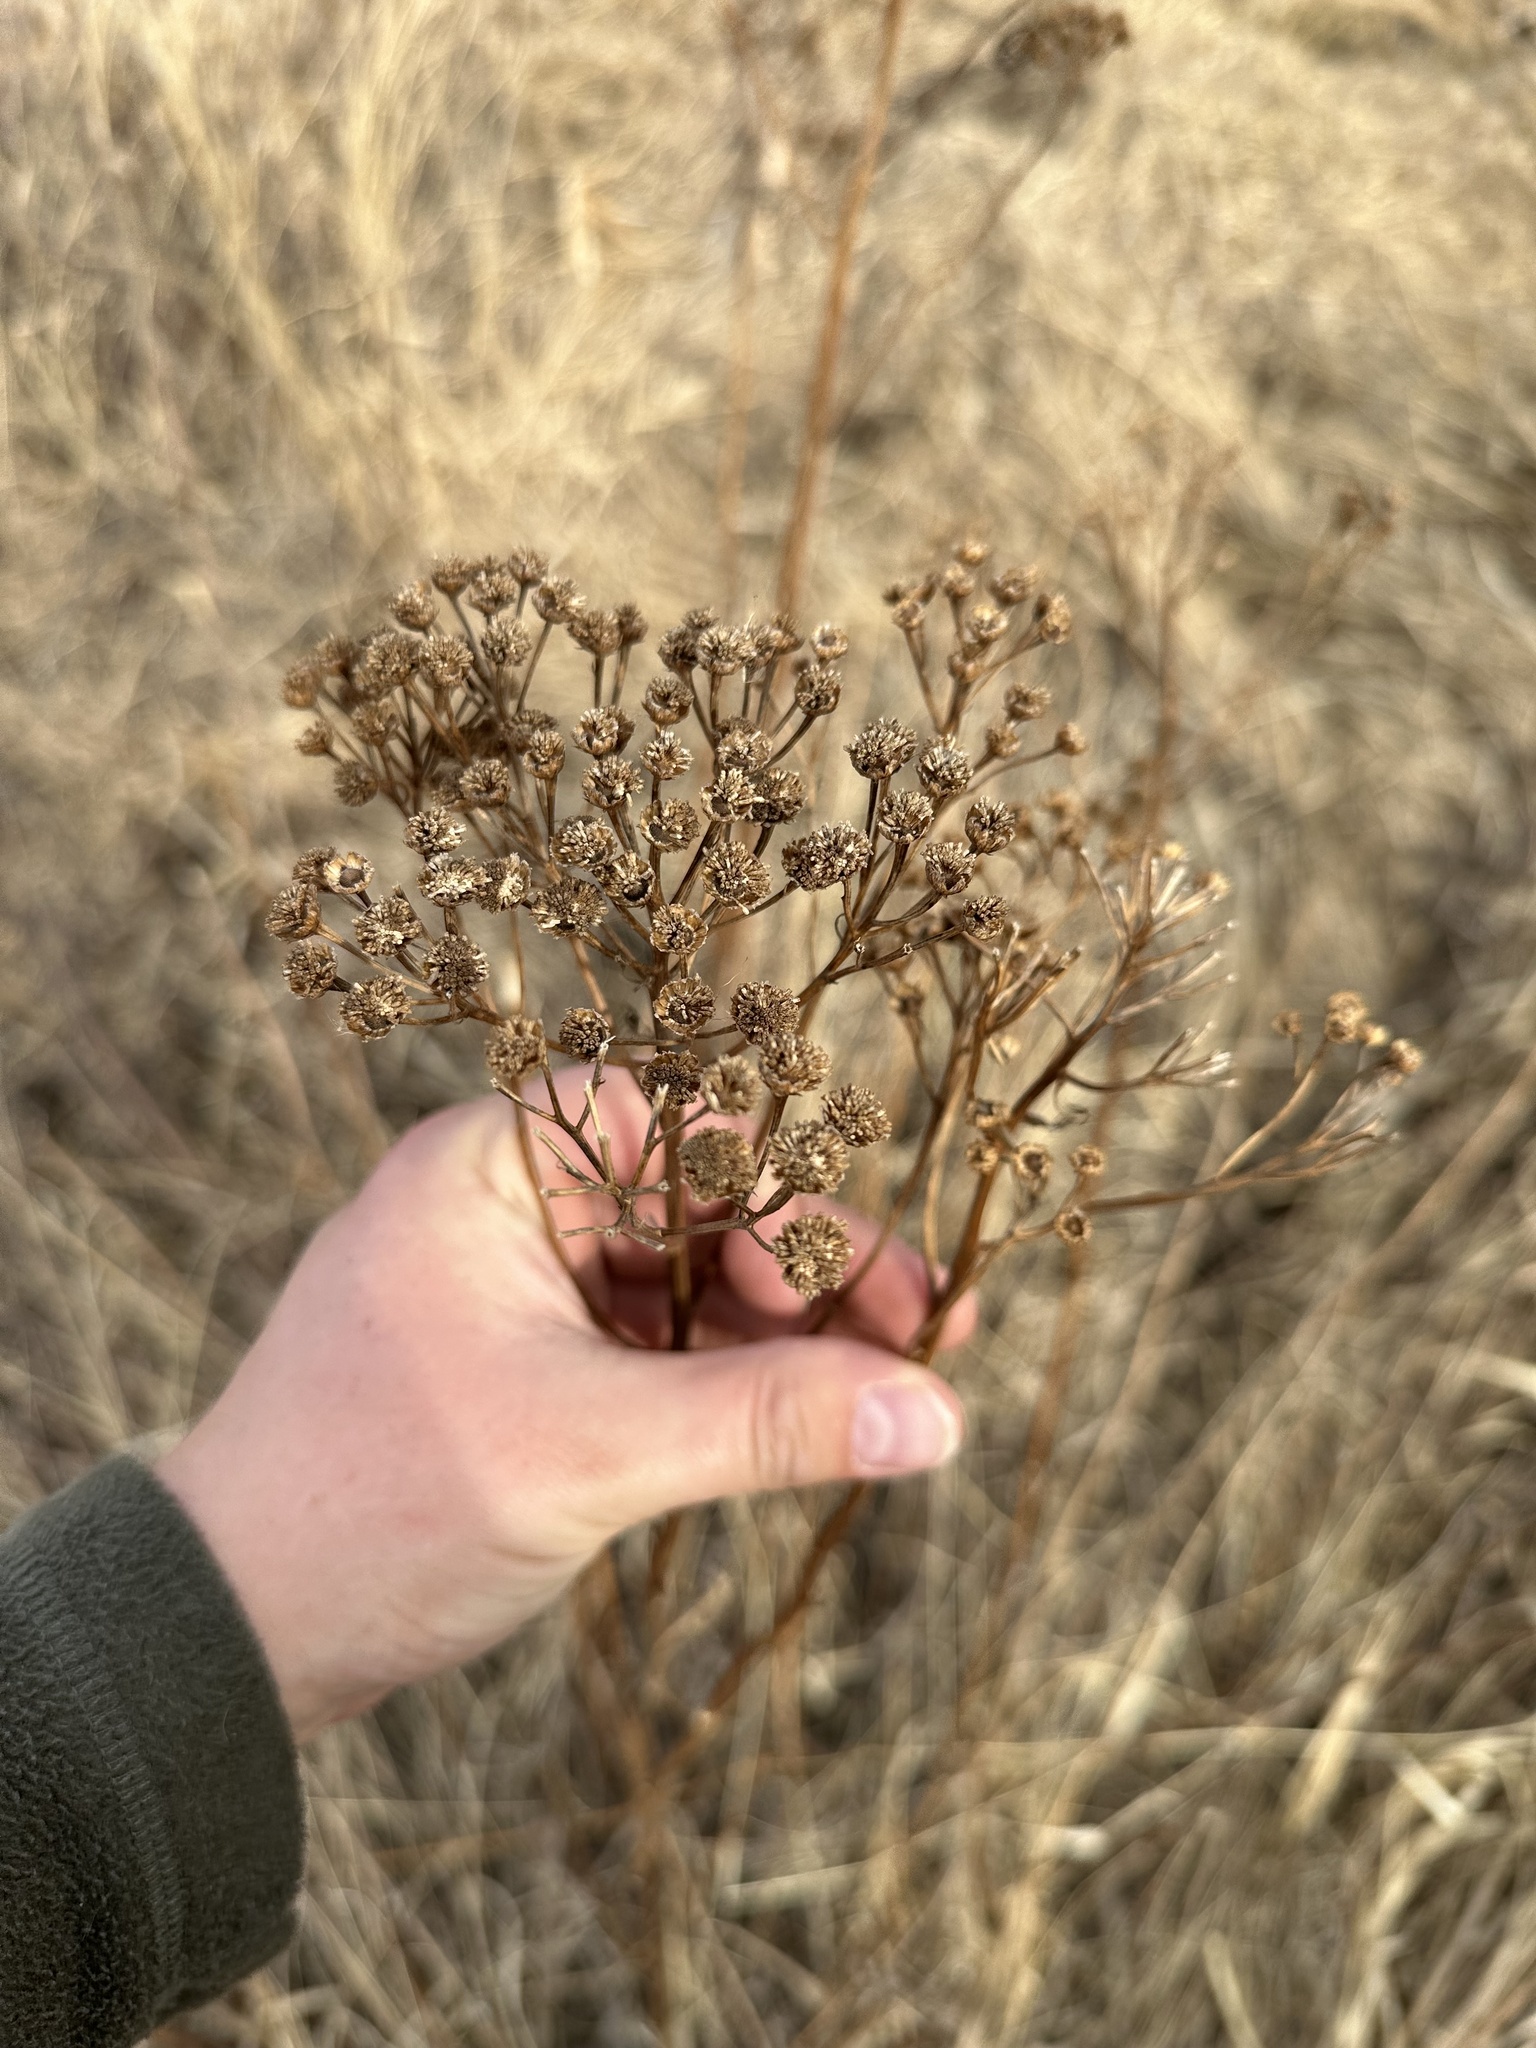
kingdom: Plantae
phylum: Tracheophyta
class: Magnoliopsida
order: Asterales
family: Asteraceae
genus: Tanacetum
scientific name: Tanacetum vulgare
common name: Common tansy
